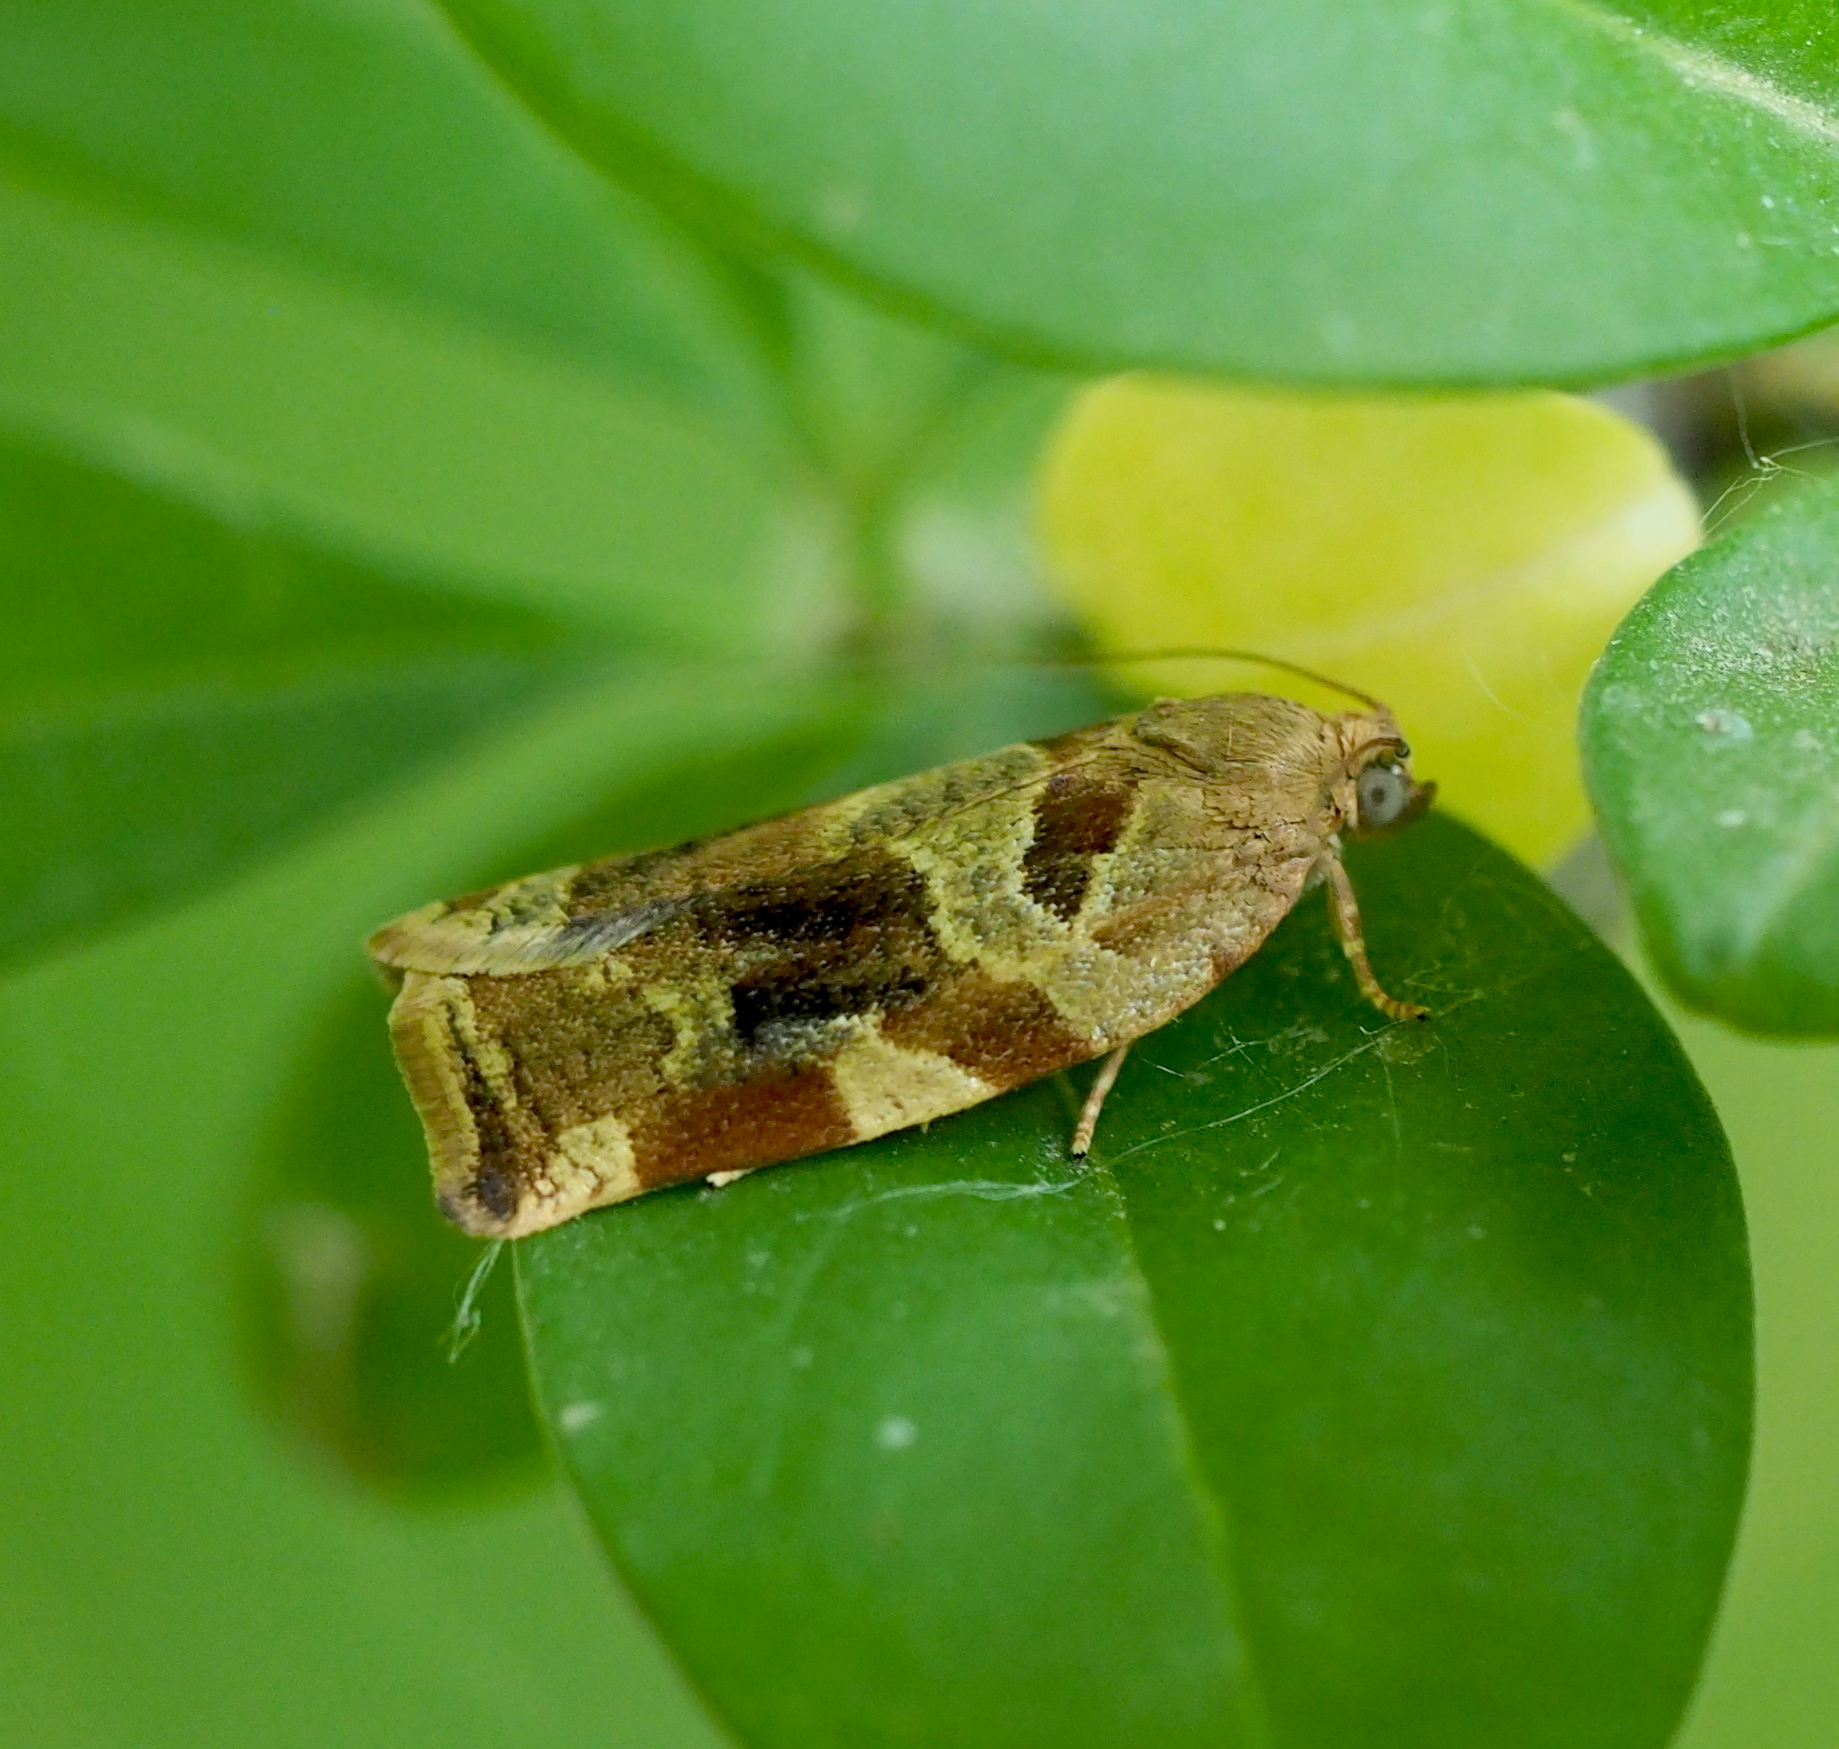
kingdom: Animalia
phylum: Arthropoda
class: Insecta
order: Lepidoptera
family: Tortricidae
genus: Archips
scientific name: Archips xylosteana
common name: Variegated golden tortrix
